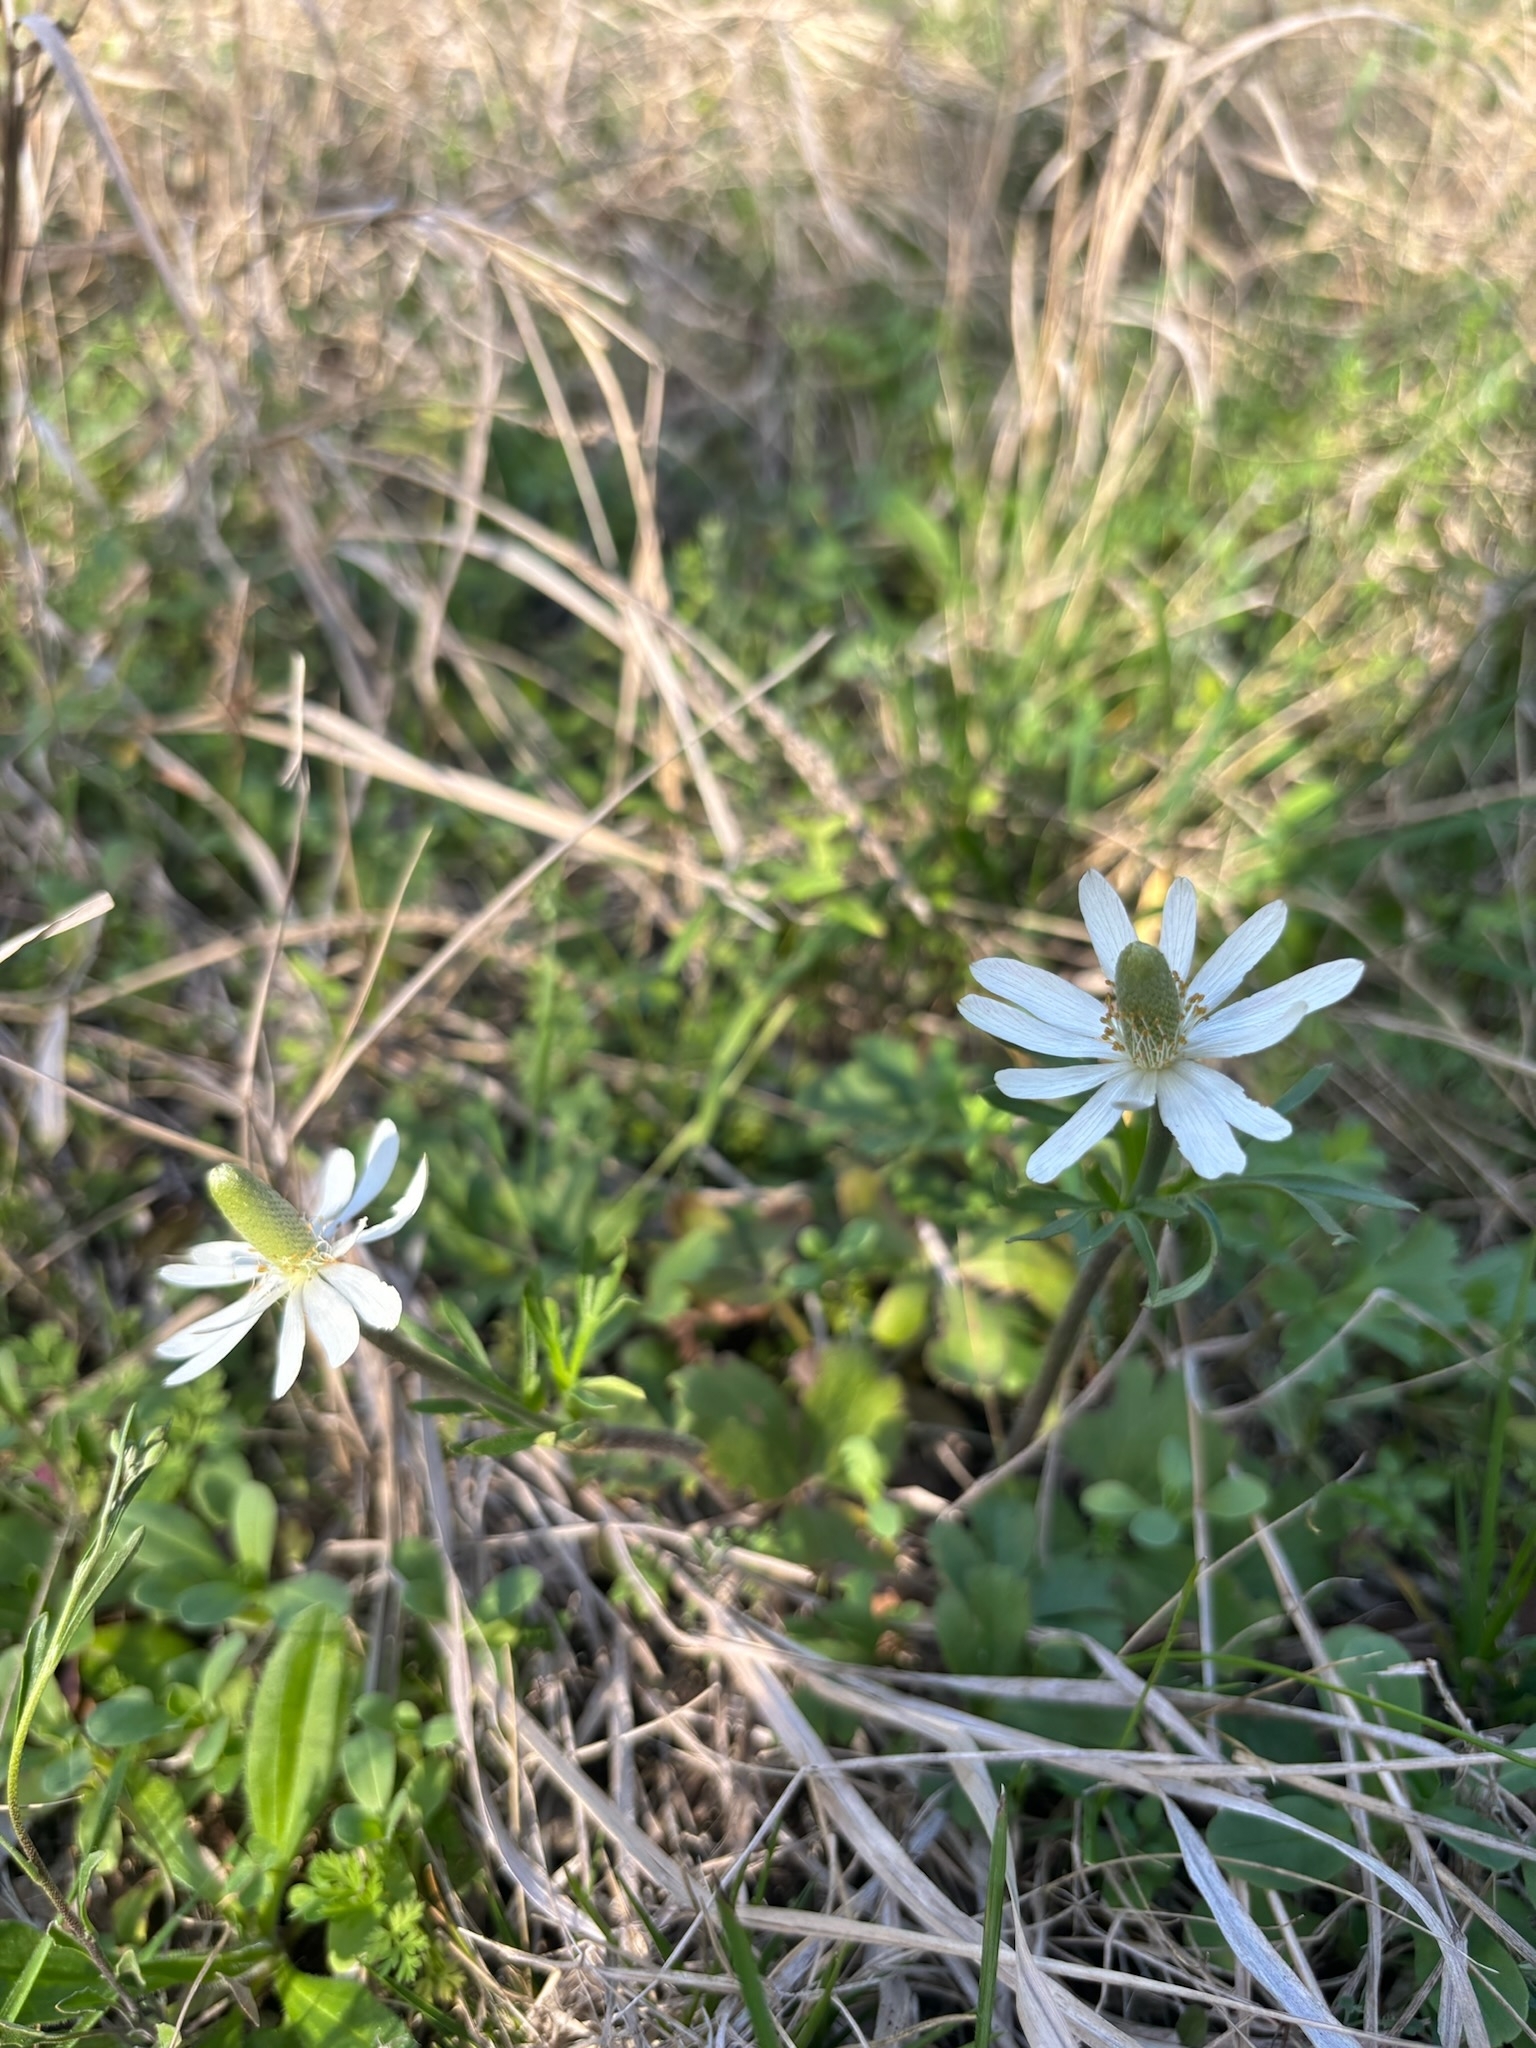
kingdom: Plantae
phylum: Tracheophyta
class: Magnoliopsida
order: Ranunculales
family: Ranunculaceae
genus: Anemone
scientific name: Anemone berlandieri
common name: Ten-petal anemone
